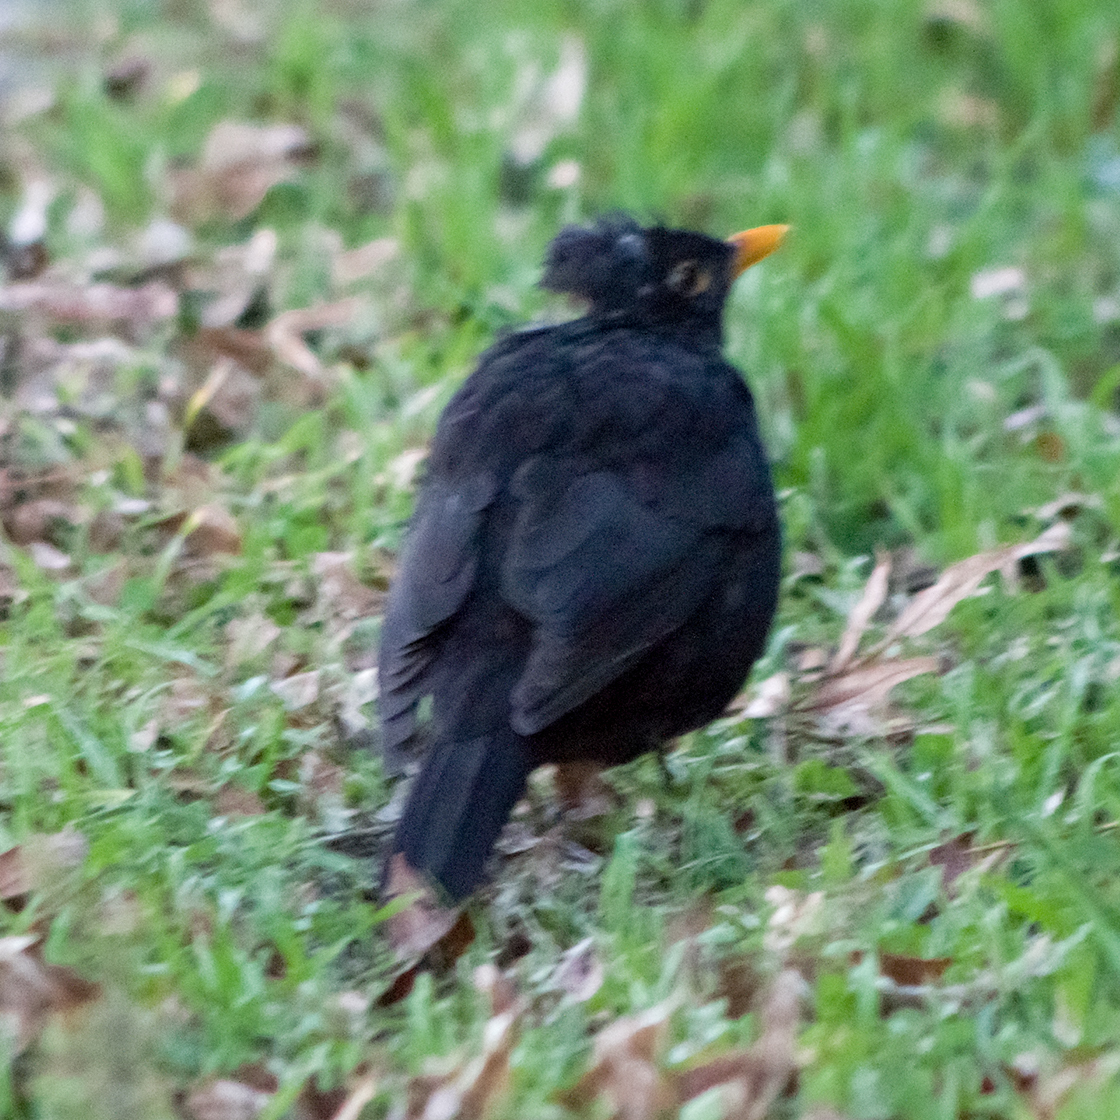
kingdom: Animalia
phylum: Chordata
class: Aves
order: Passeriformes
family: Turdidae
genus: Turdus
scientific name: Turdus merula
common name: Common blackbird
